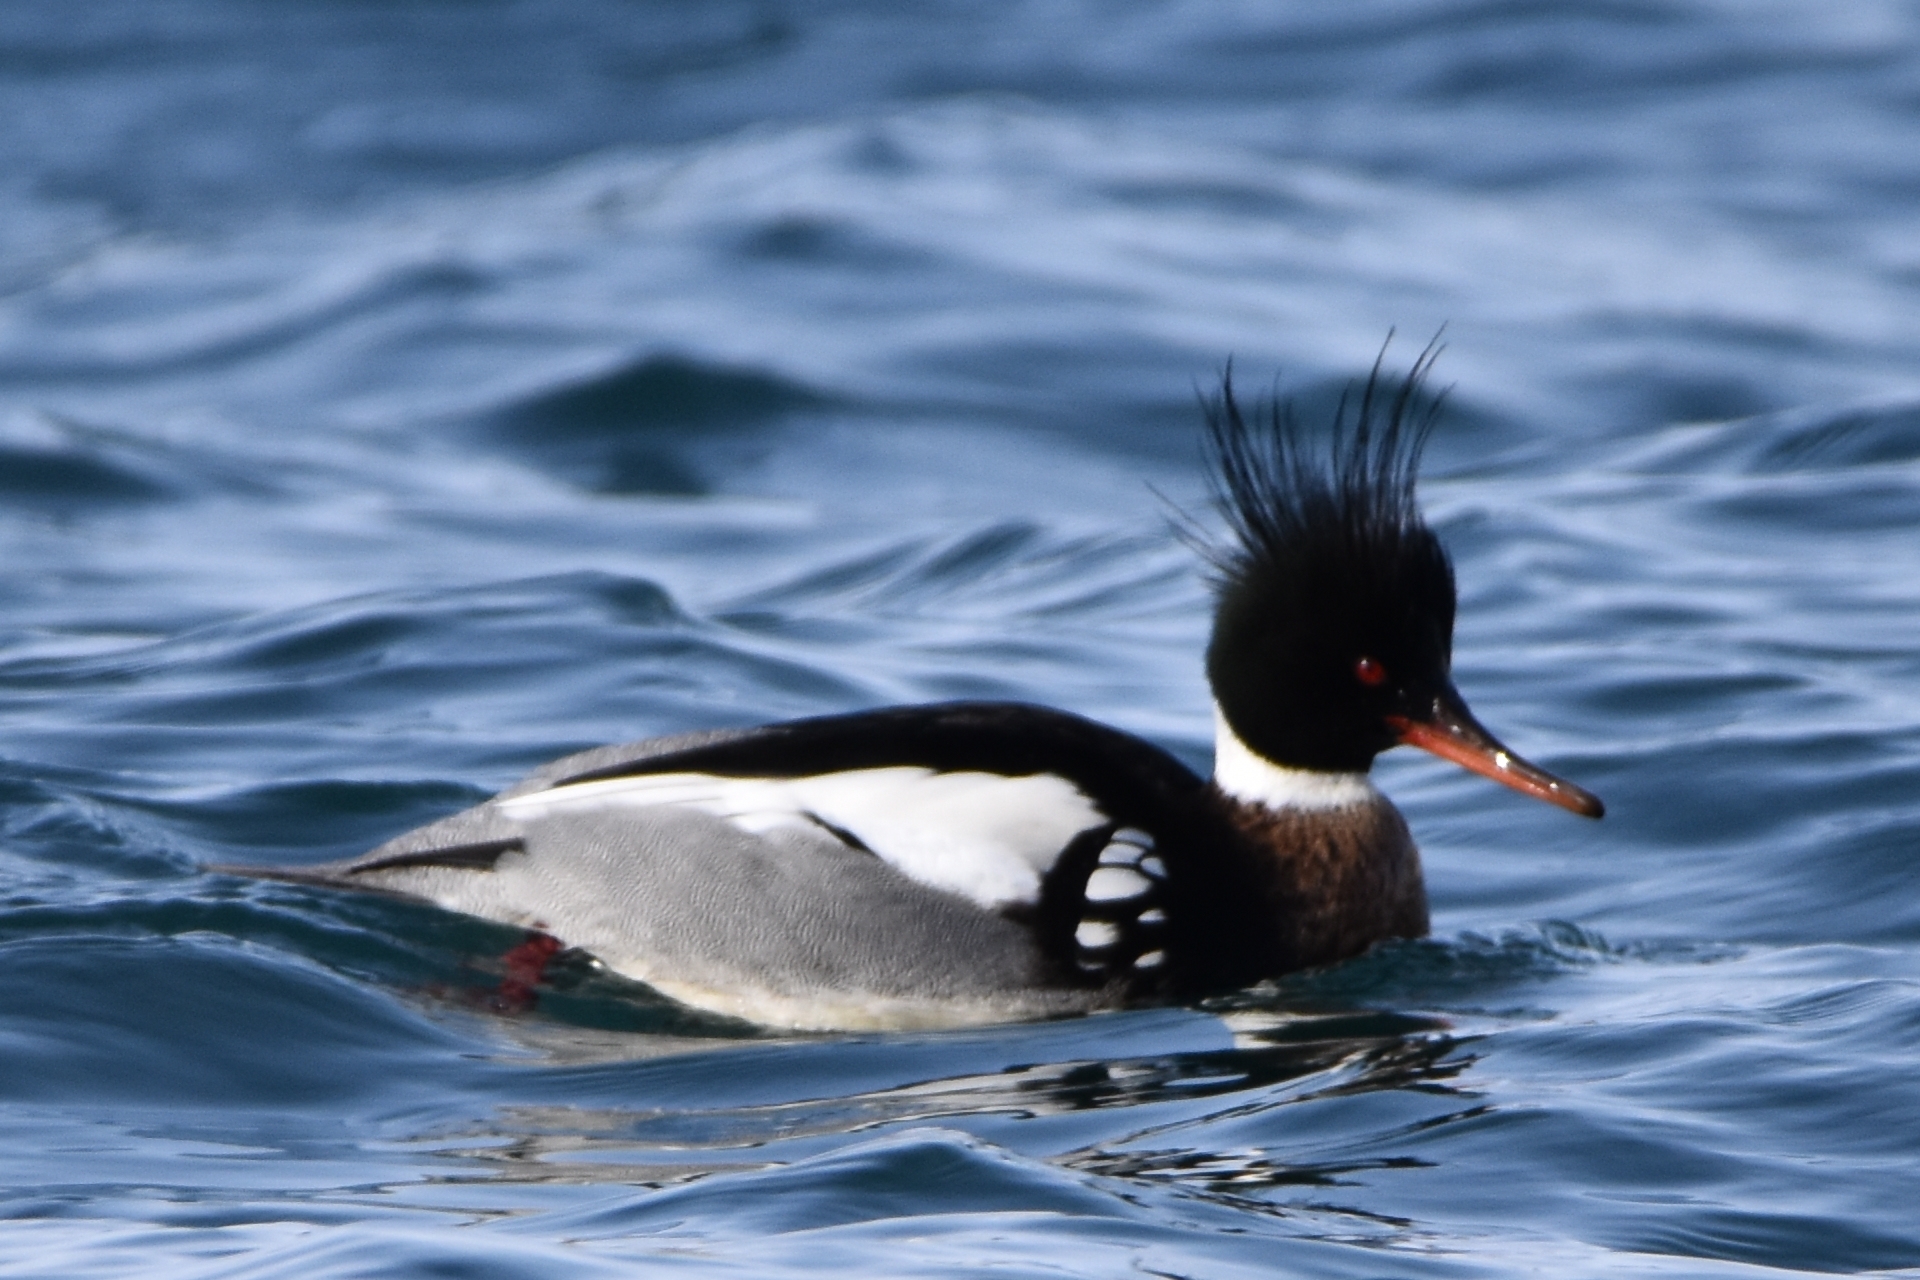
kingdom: Animalia
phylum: Chordata
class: Aves
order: Anseriformes
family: Anatidae
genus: Mergus
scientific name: Mergus serrator
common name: Red-breasted merganser
